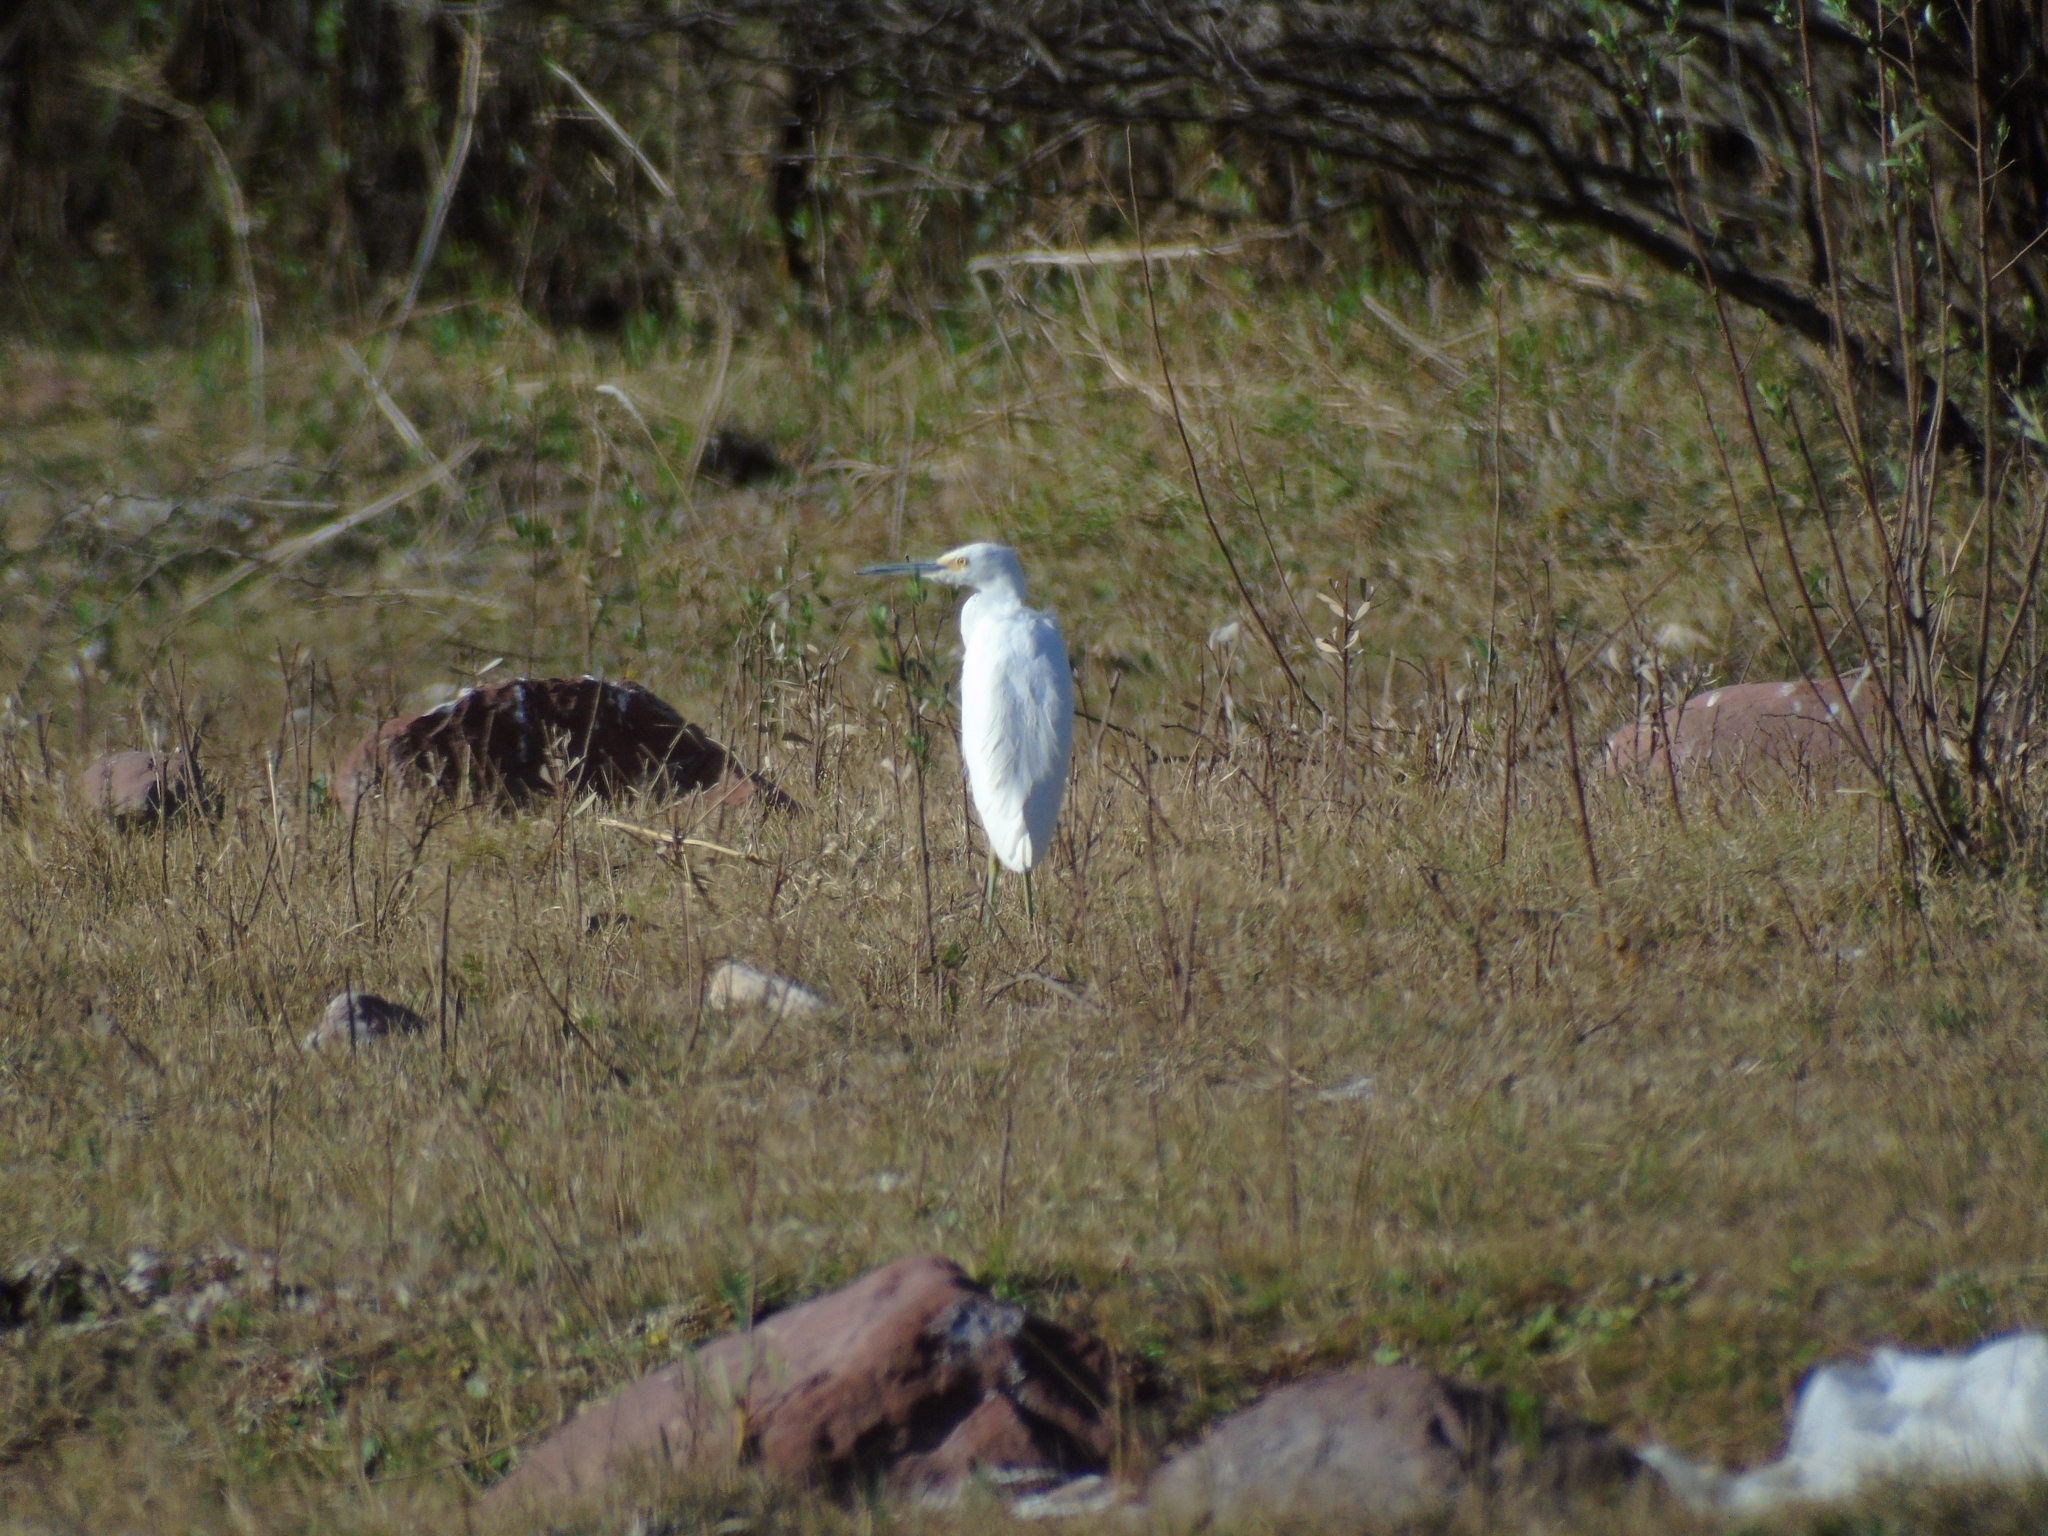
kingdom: Animalia
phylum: Chordata
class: Aves
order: Pelecaniformes
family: Ardeidae
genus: Egretta
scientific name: Egretta thula
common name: Snowy egret
